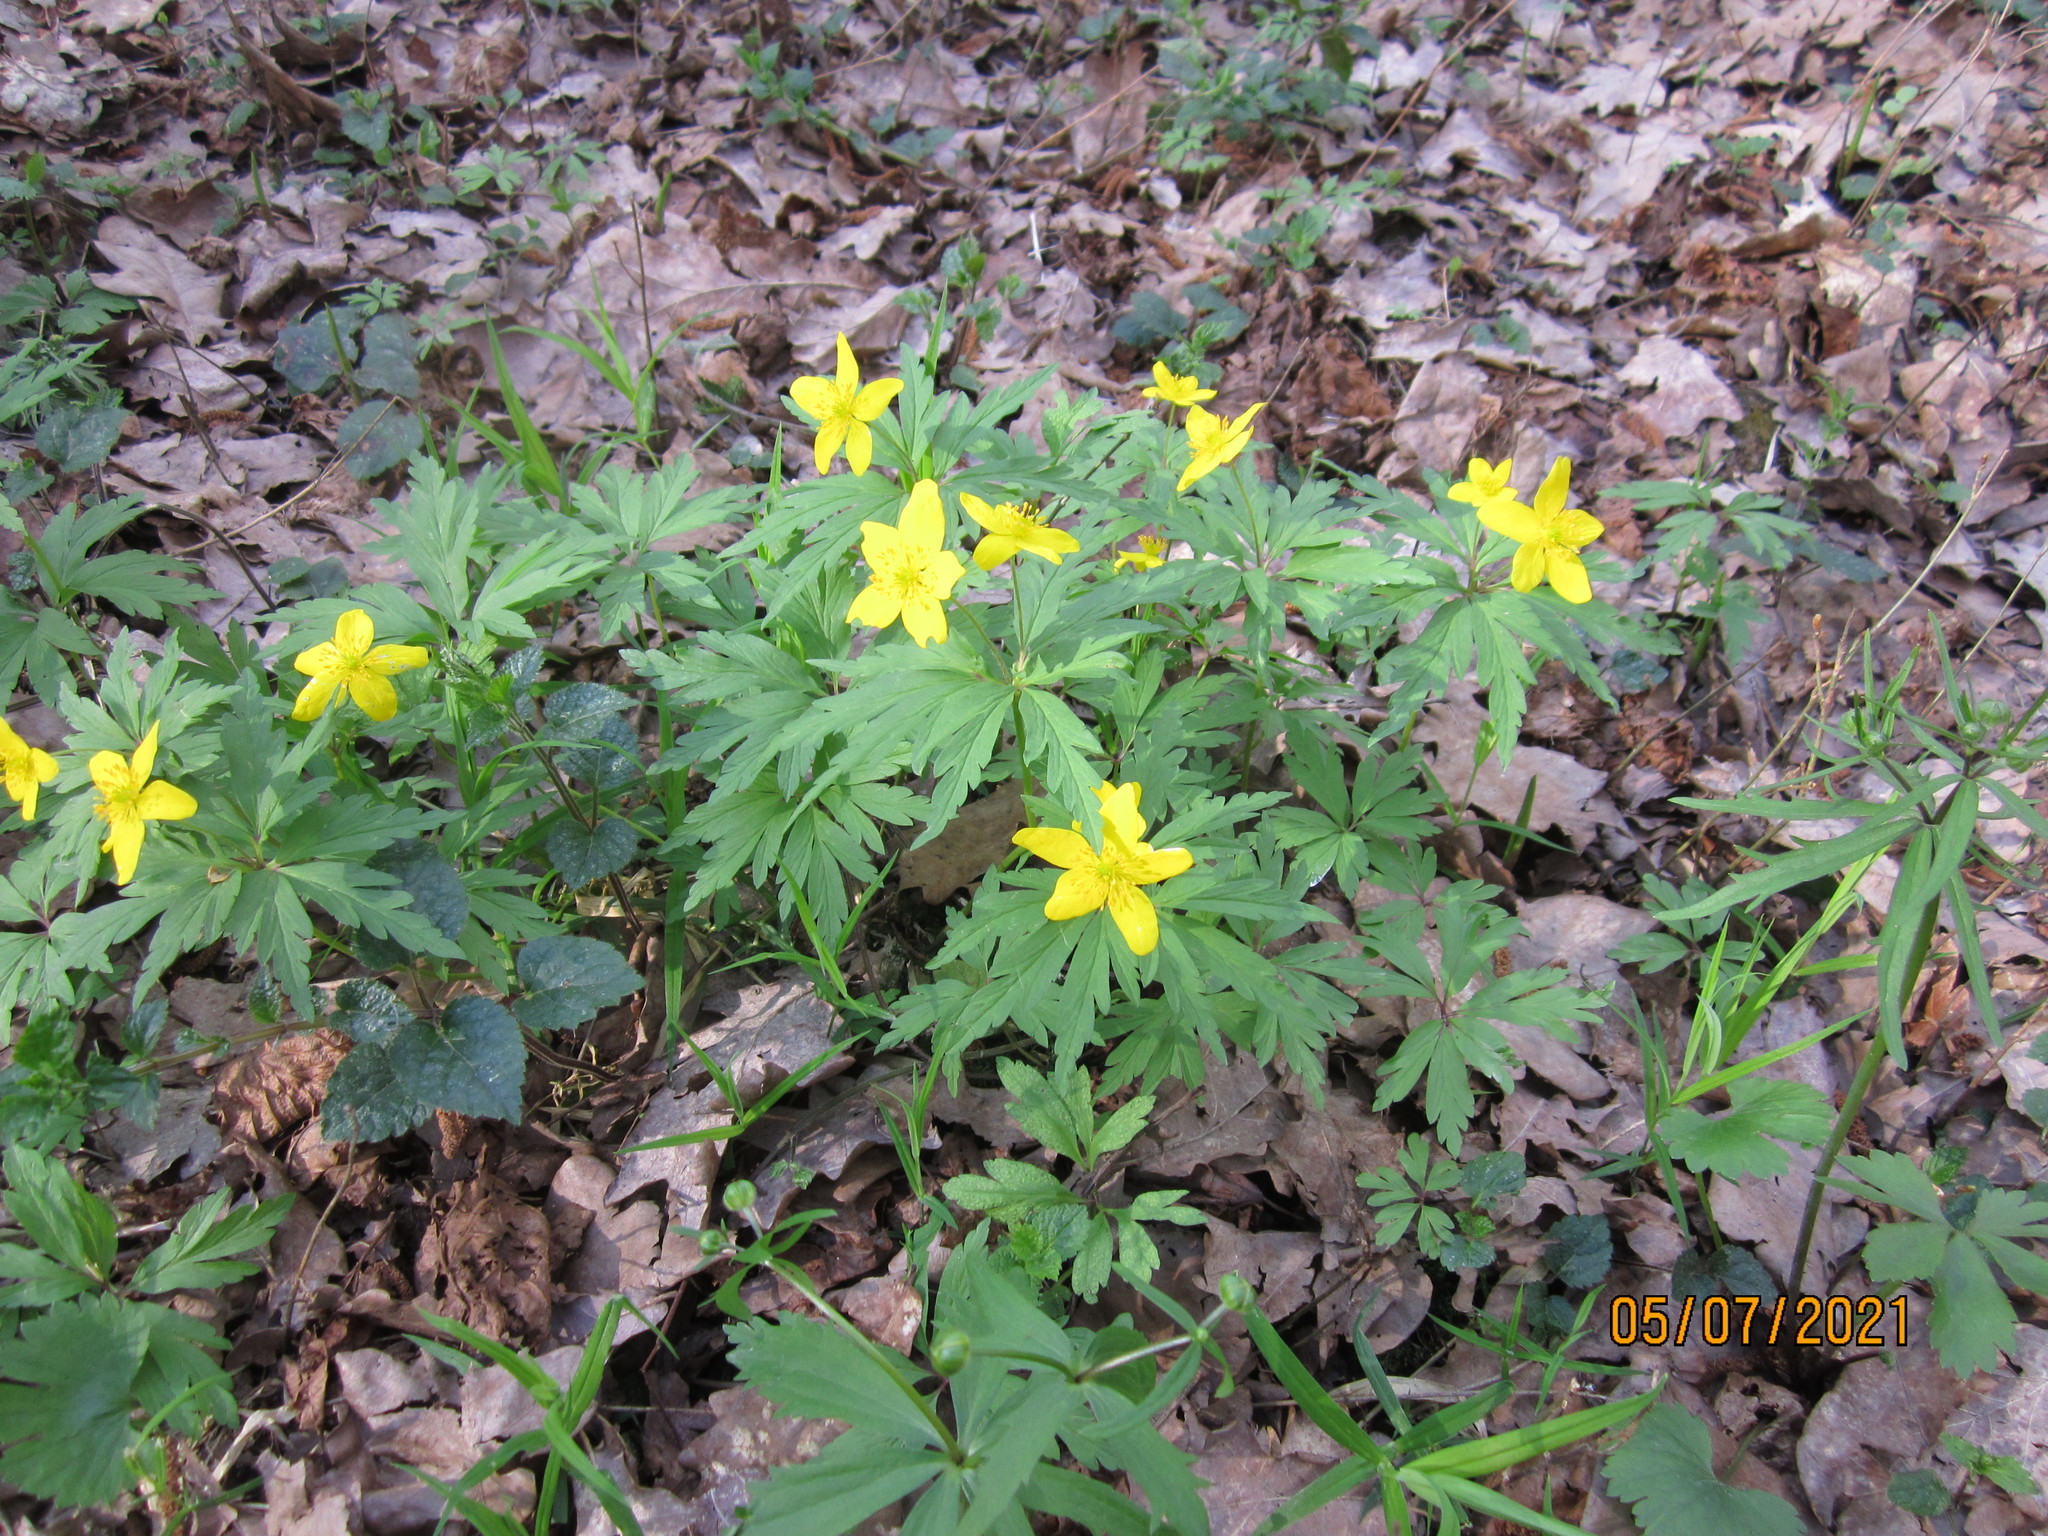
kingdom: Plantae
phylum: Tracheophyta
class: Magnoliopsida
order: Ranunculales
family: Ranunculaceae
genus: Anemone
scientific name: Anemone ranunculoides
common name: Yellow anemone
